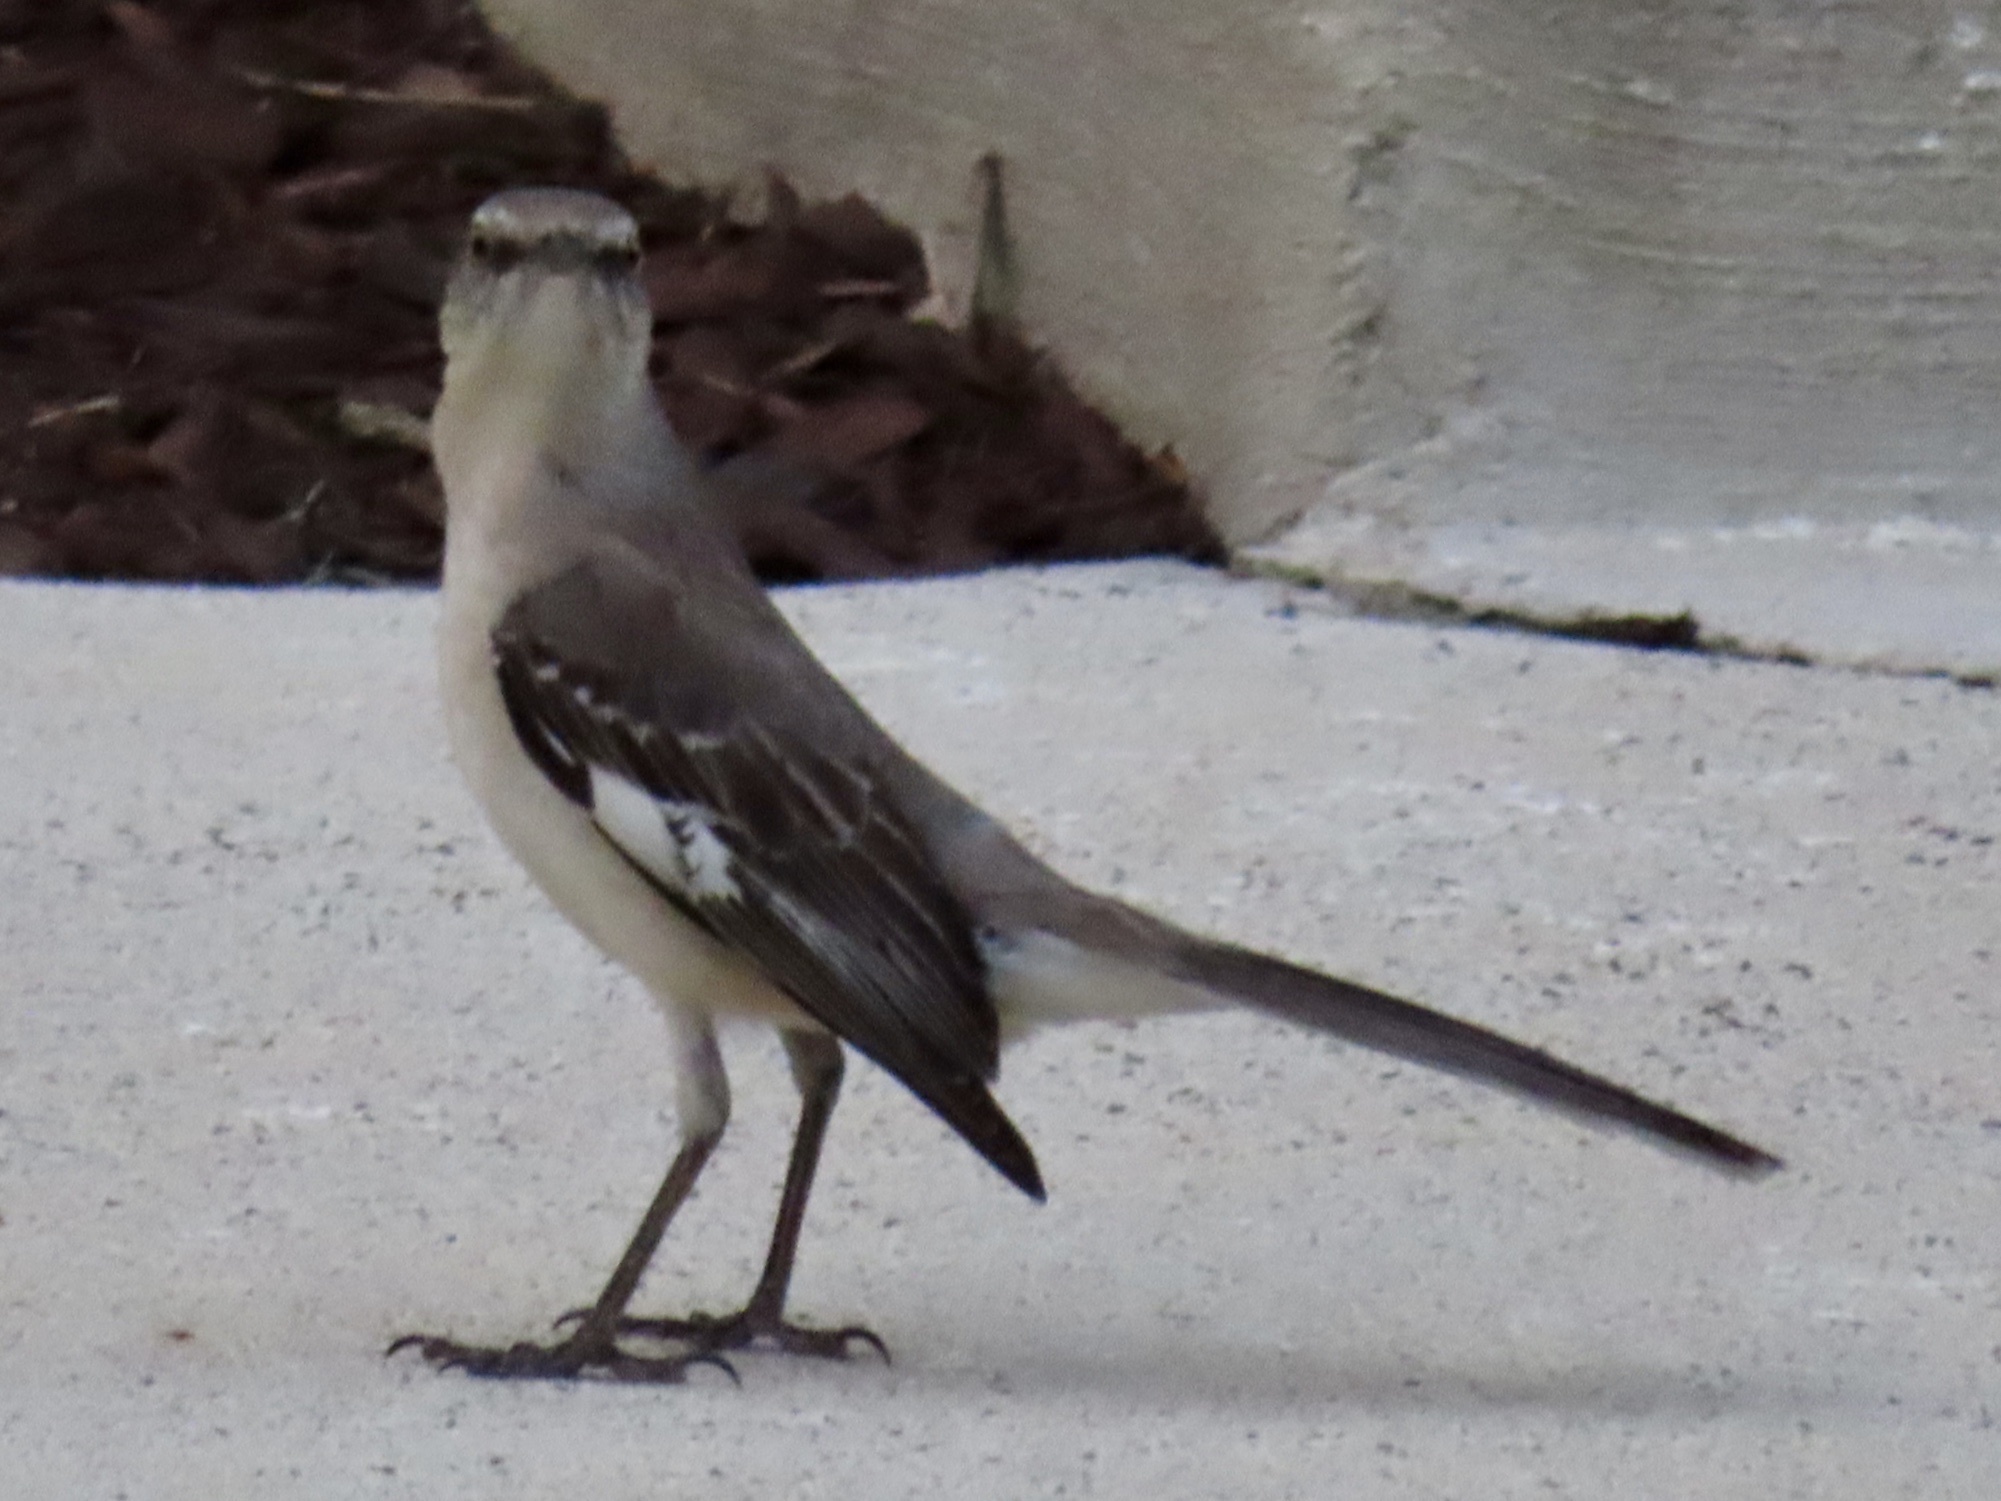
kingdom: Animalia
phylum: Chordata
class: Aves
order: Passeriformes
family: Mimidae
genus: Mimus
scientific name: Mimus polyglottos
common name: Northern mockingbird
